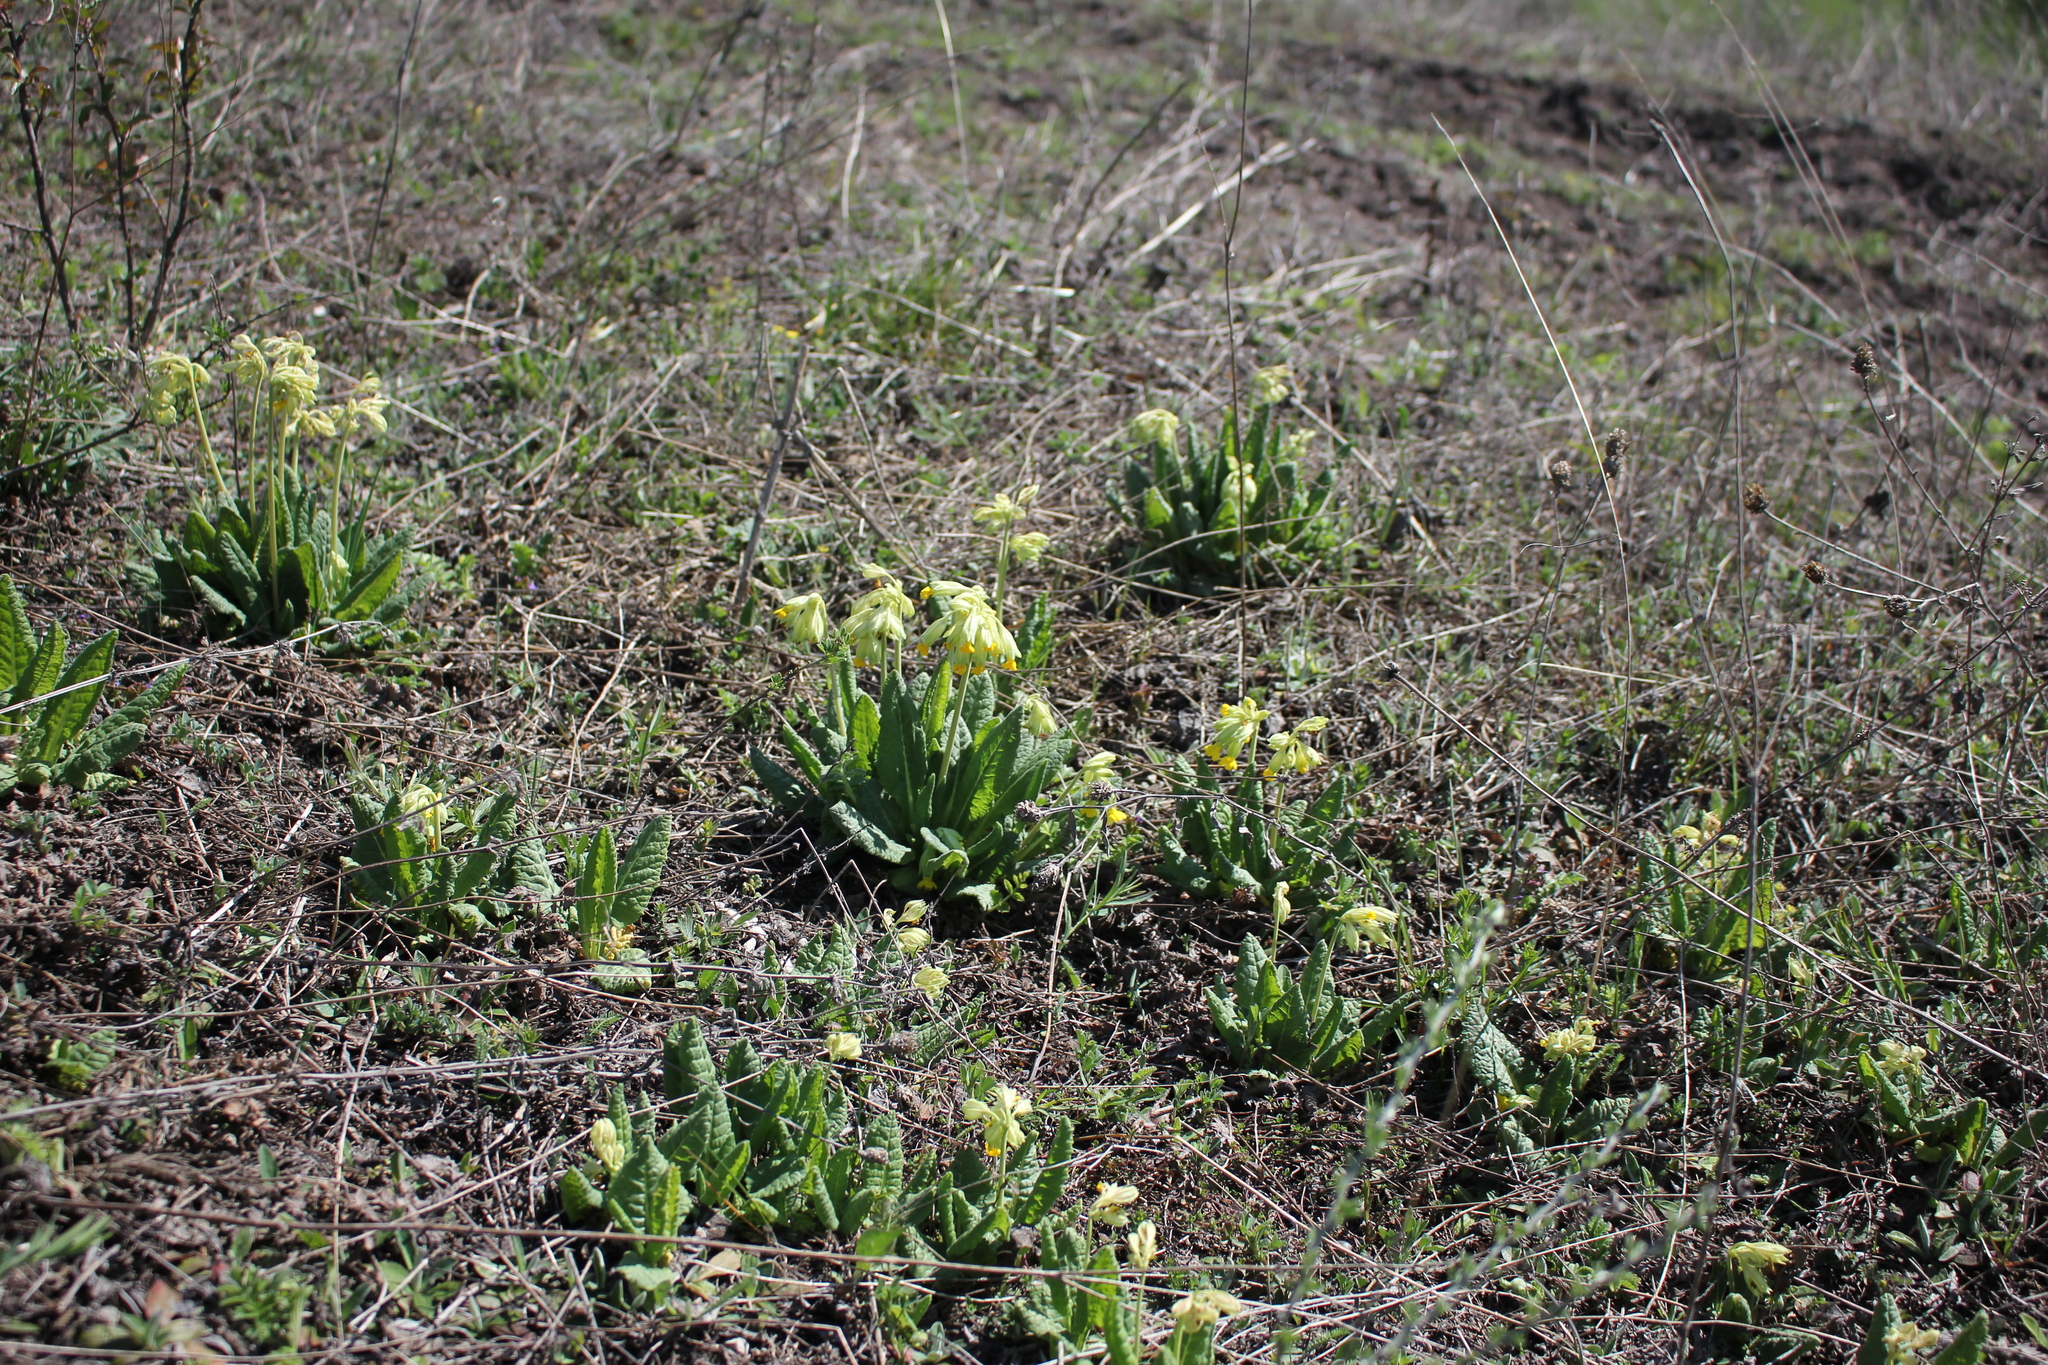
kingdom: Plantae
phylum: Tracheophyta
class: Magnoliopsida
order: Ericales
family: Primulaceae
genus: Primula
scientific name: Primula veris
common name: Cowslip
